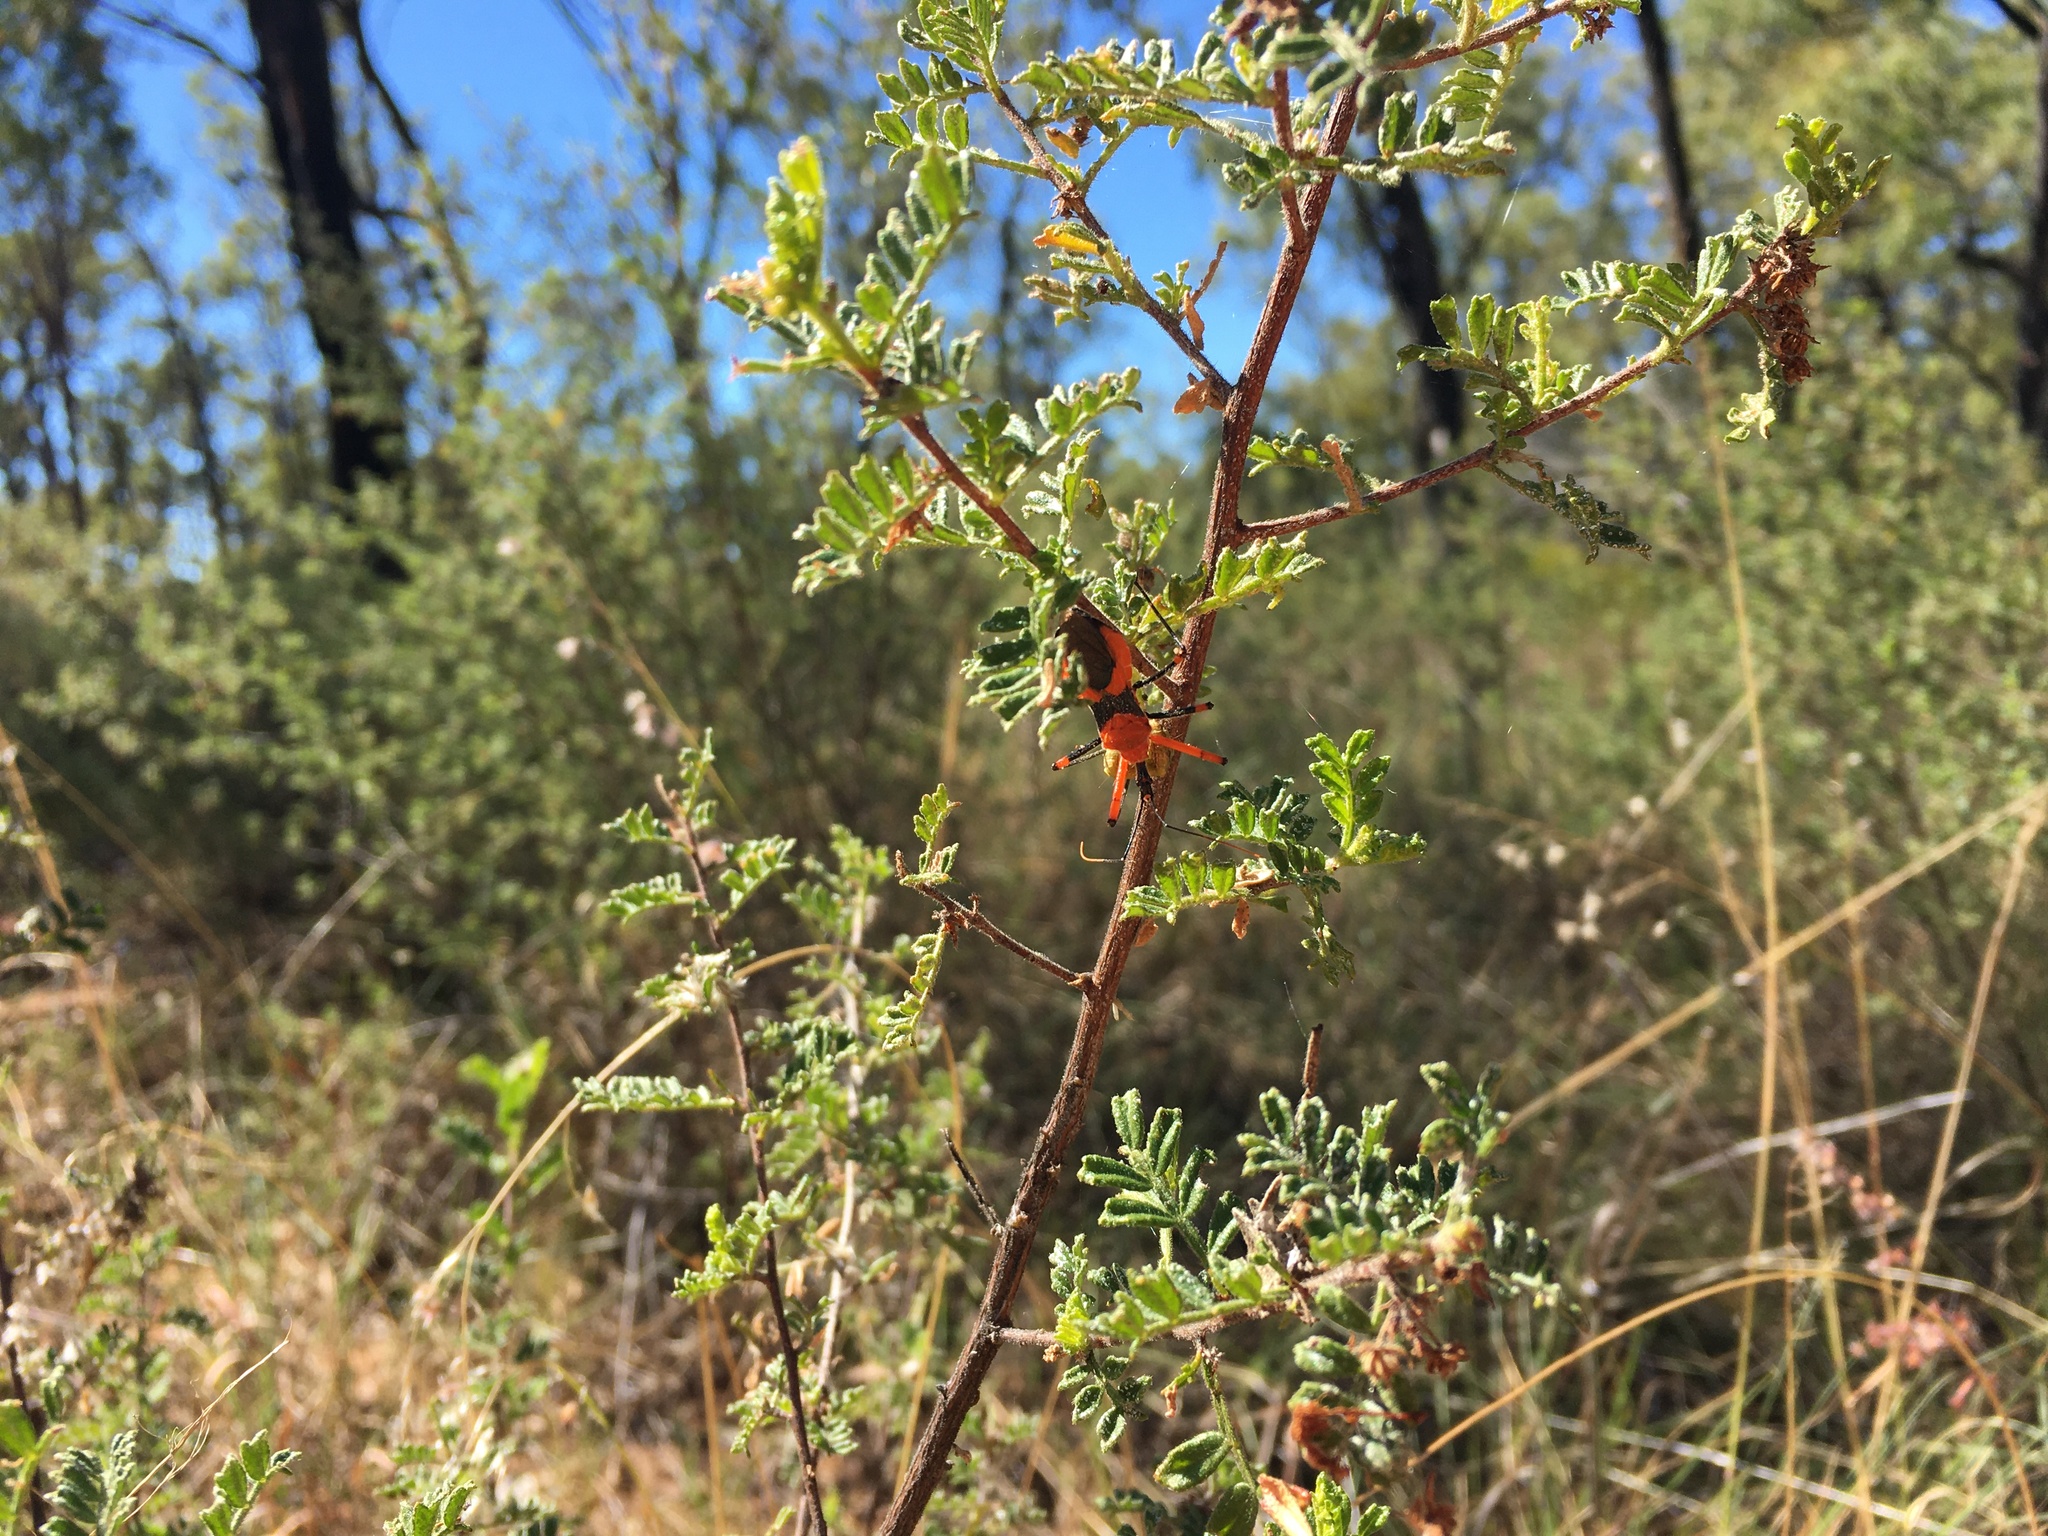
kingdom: Plantae
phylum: Tracheophyta
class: Magnoliopsida
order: Sapindales
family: Sapindaceae
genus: Dodonaea
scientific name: Dodonaea boroniifolia
